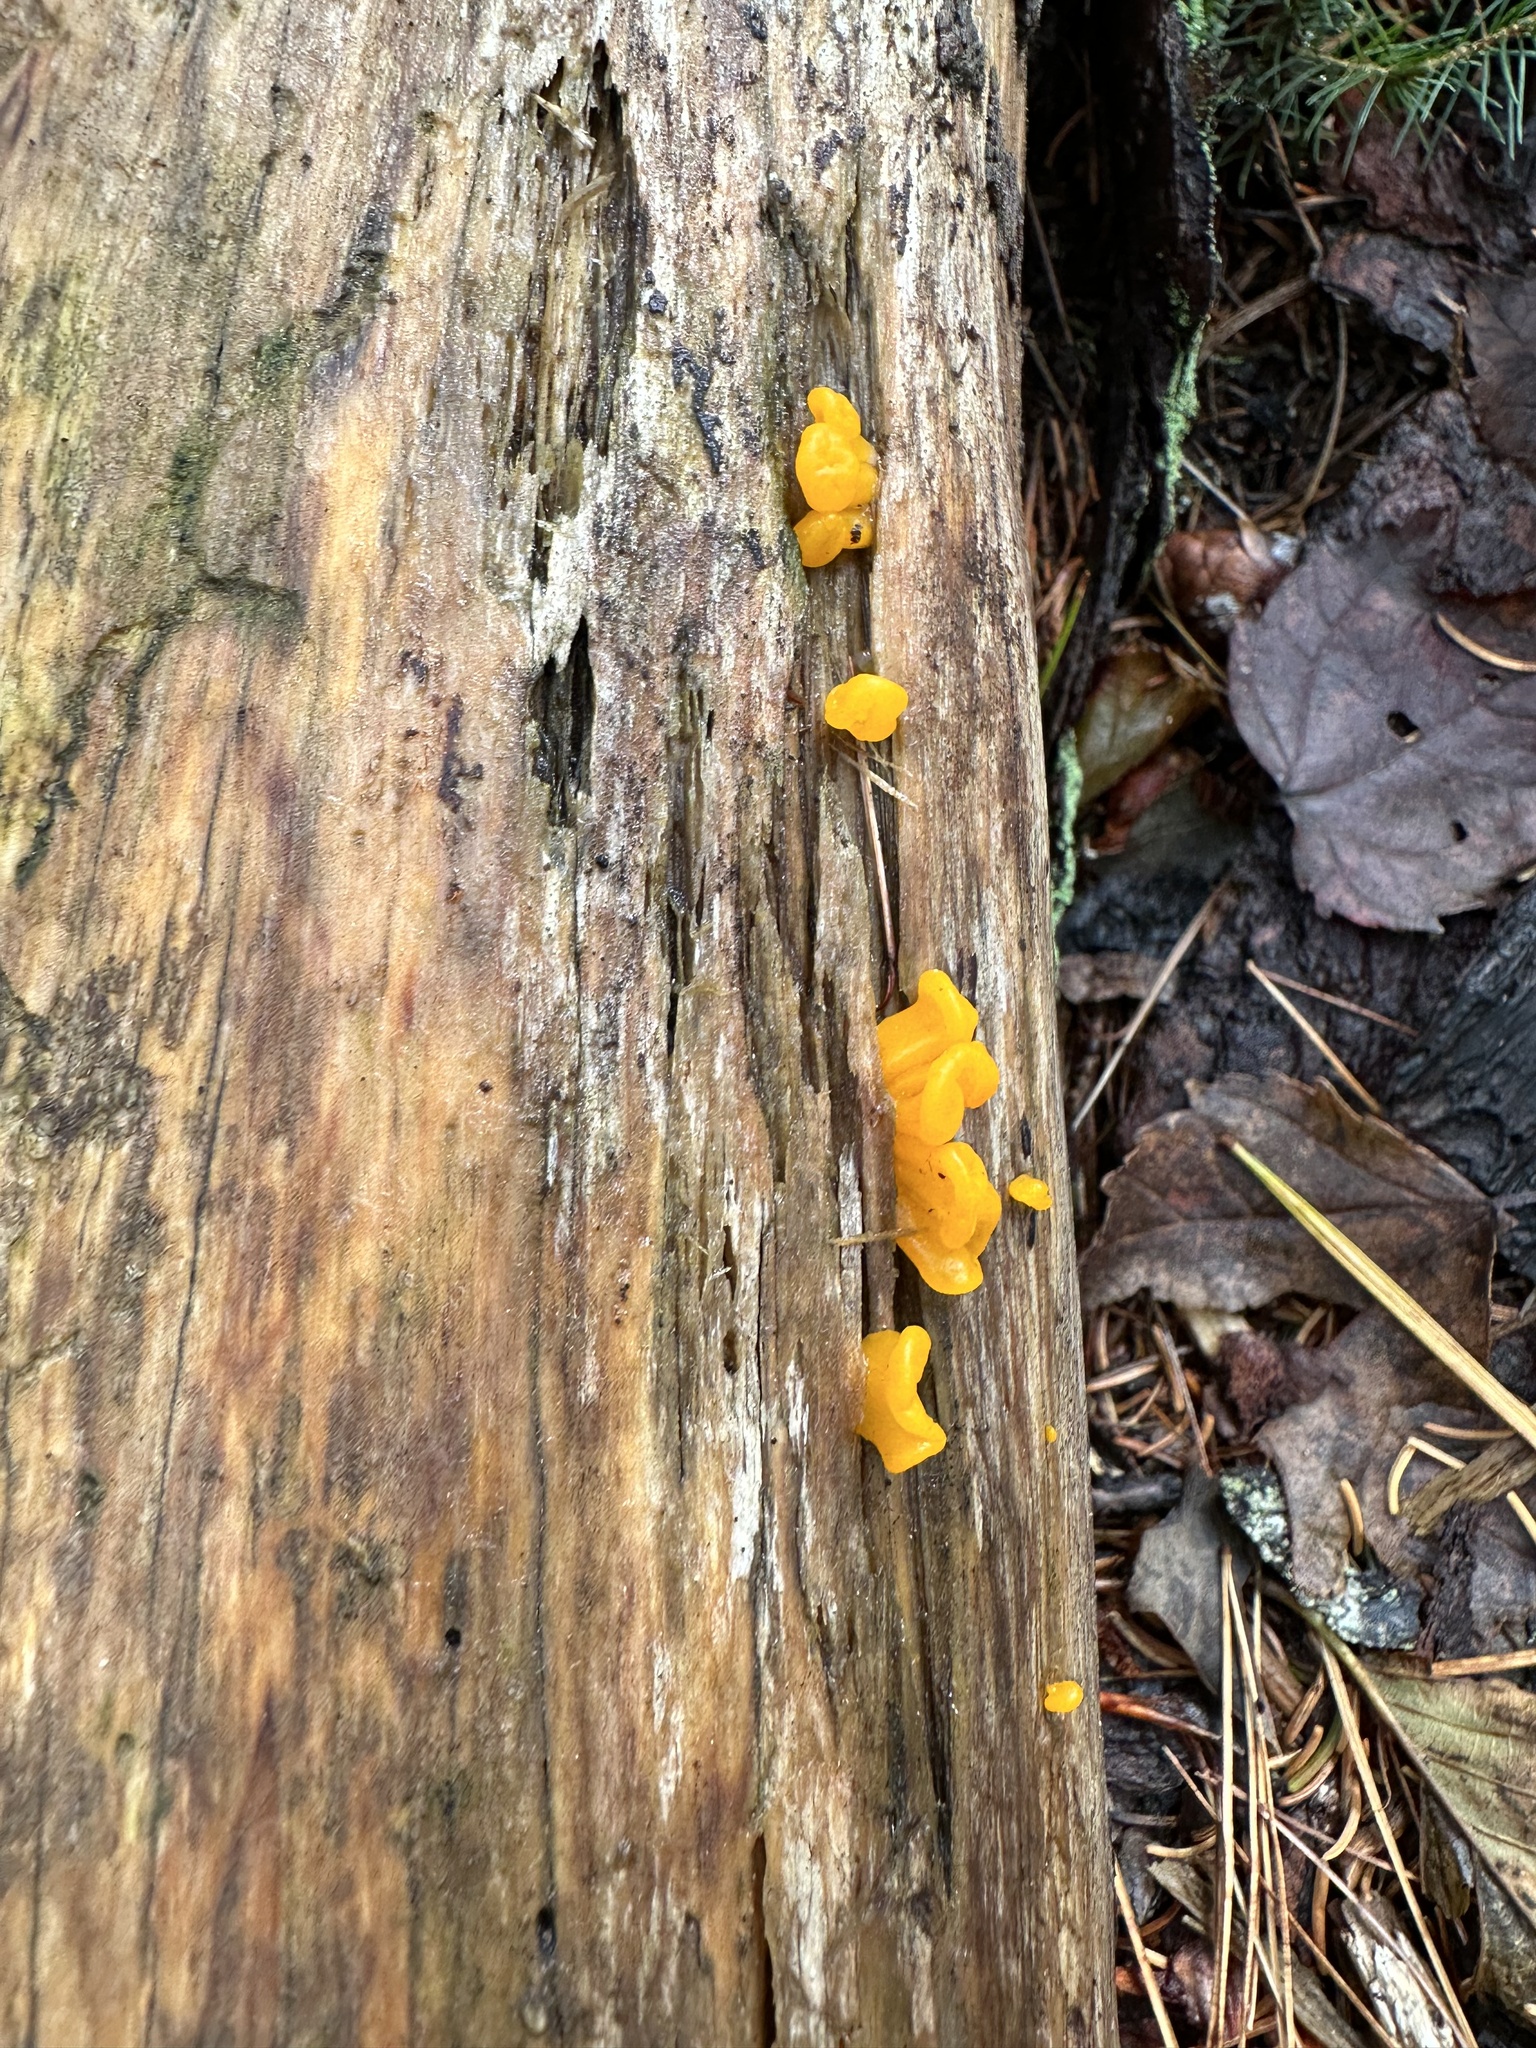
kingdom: Fungi
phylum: Basidiomycota
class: Dacrymycetes
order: Dacrymycetales
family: Dacrymycetaceae
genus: Dacrymyces
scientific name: Dacrymyces chrysospermus
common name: Orange jelly spot
